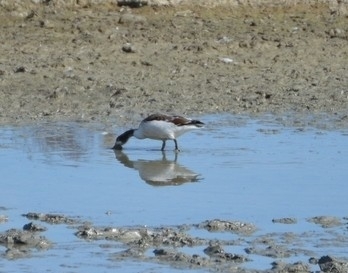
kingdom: Animalia
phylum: Chordata
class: Aves
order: Anseriformes
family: Anatidae
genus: Tadorna
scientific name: Tadorna tadorna
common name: Common shelduck
